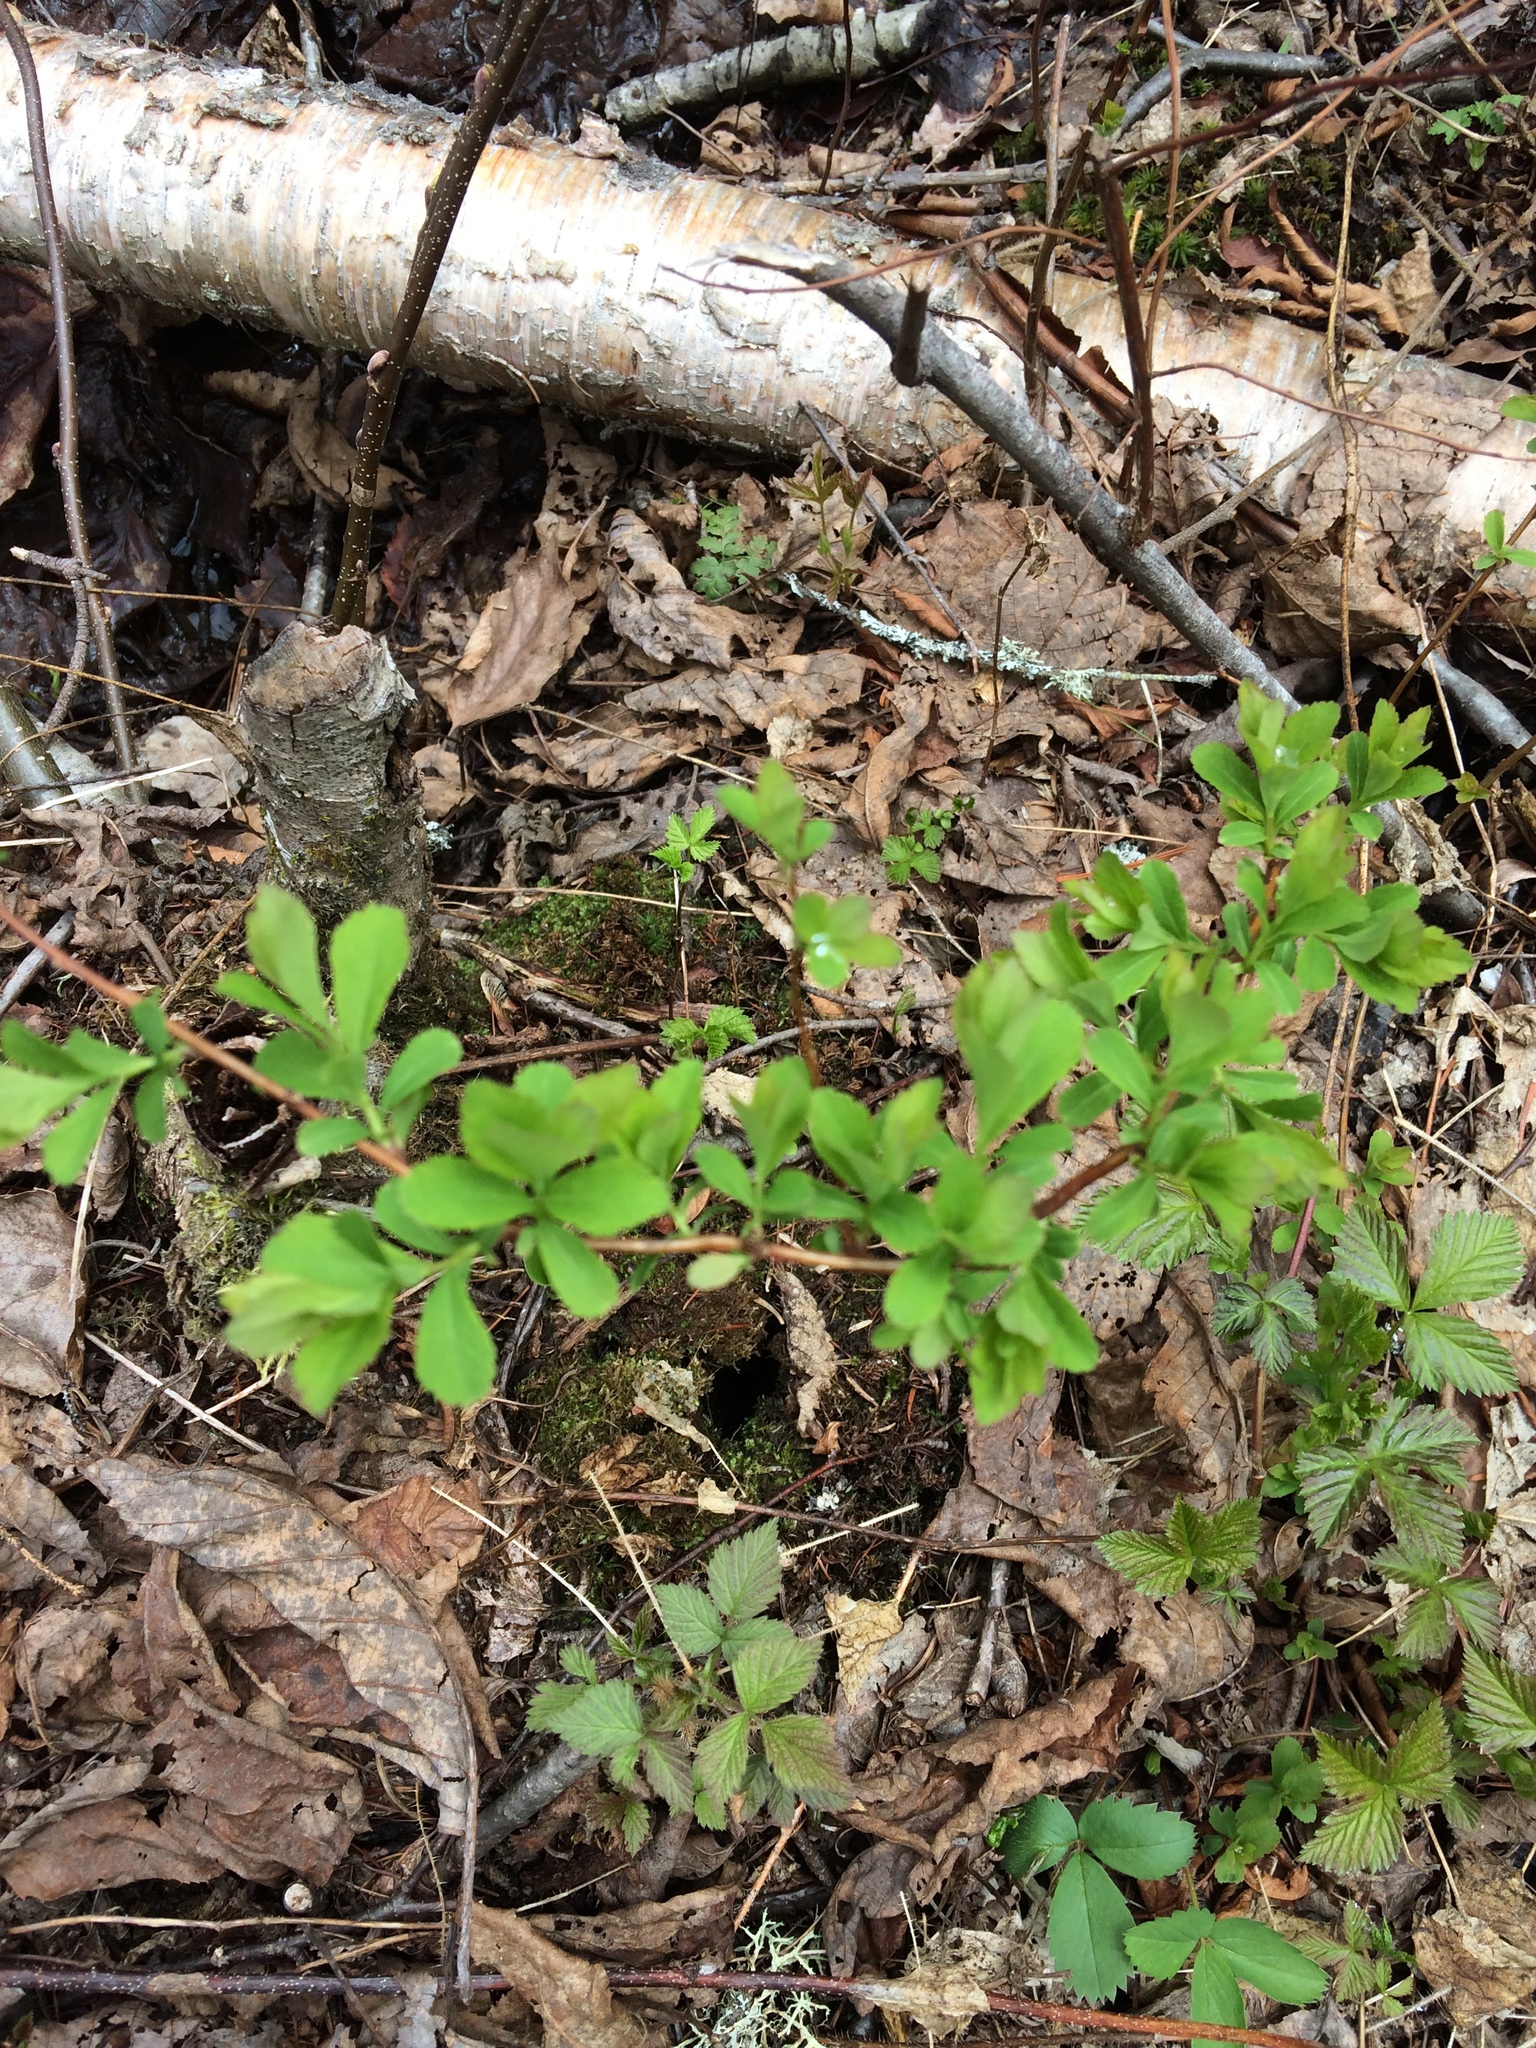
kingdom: Plantae
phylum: Tracheophyta
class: Magnoliopsida
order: Rosales
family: Rosaceae
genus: Spiraea
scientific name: Spiraea alba
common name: Pale bridewort
